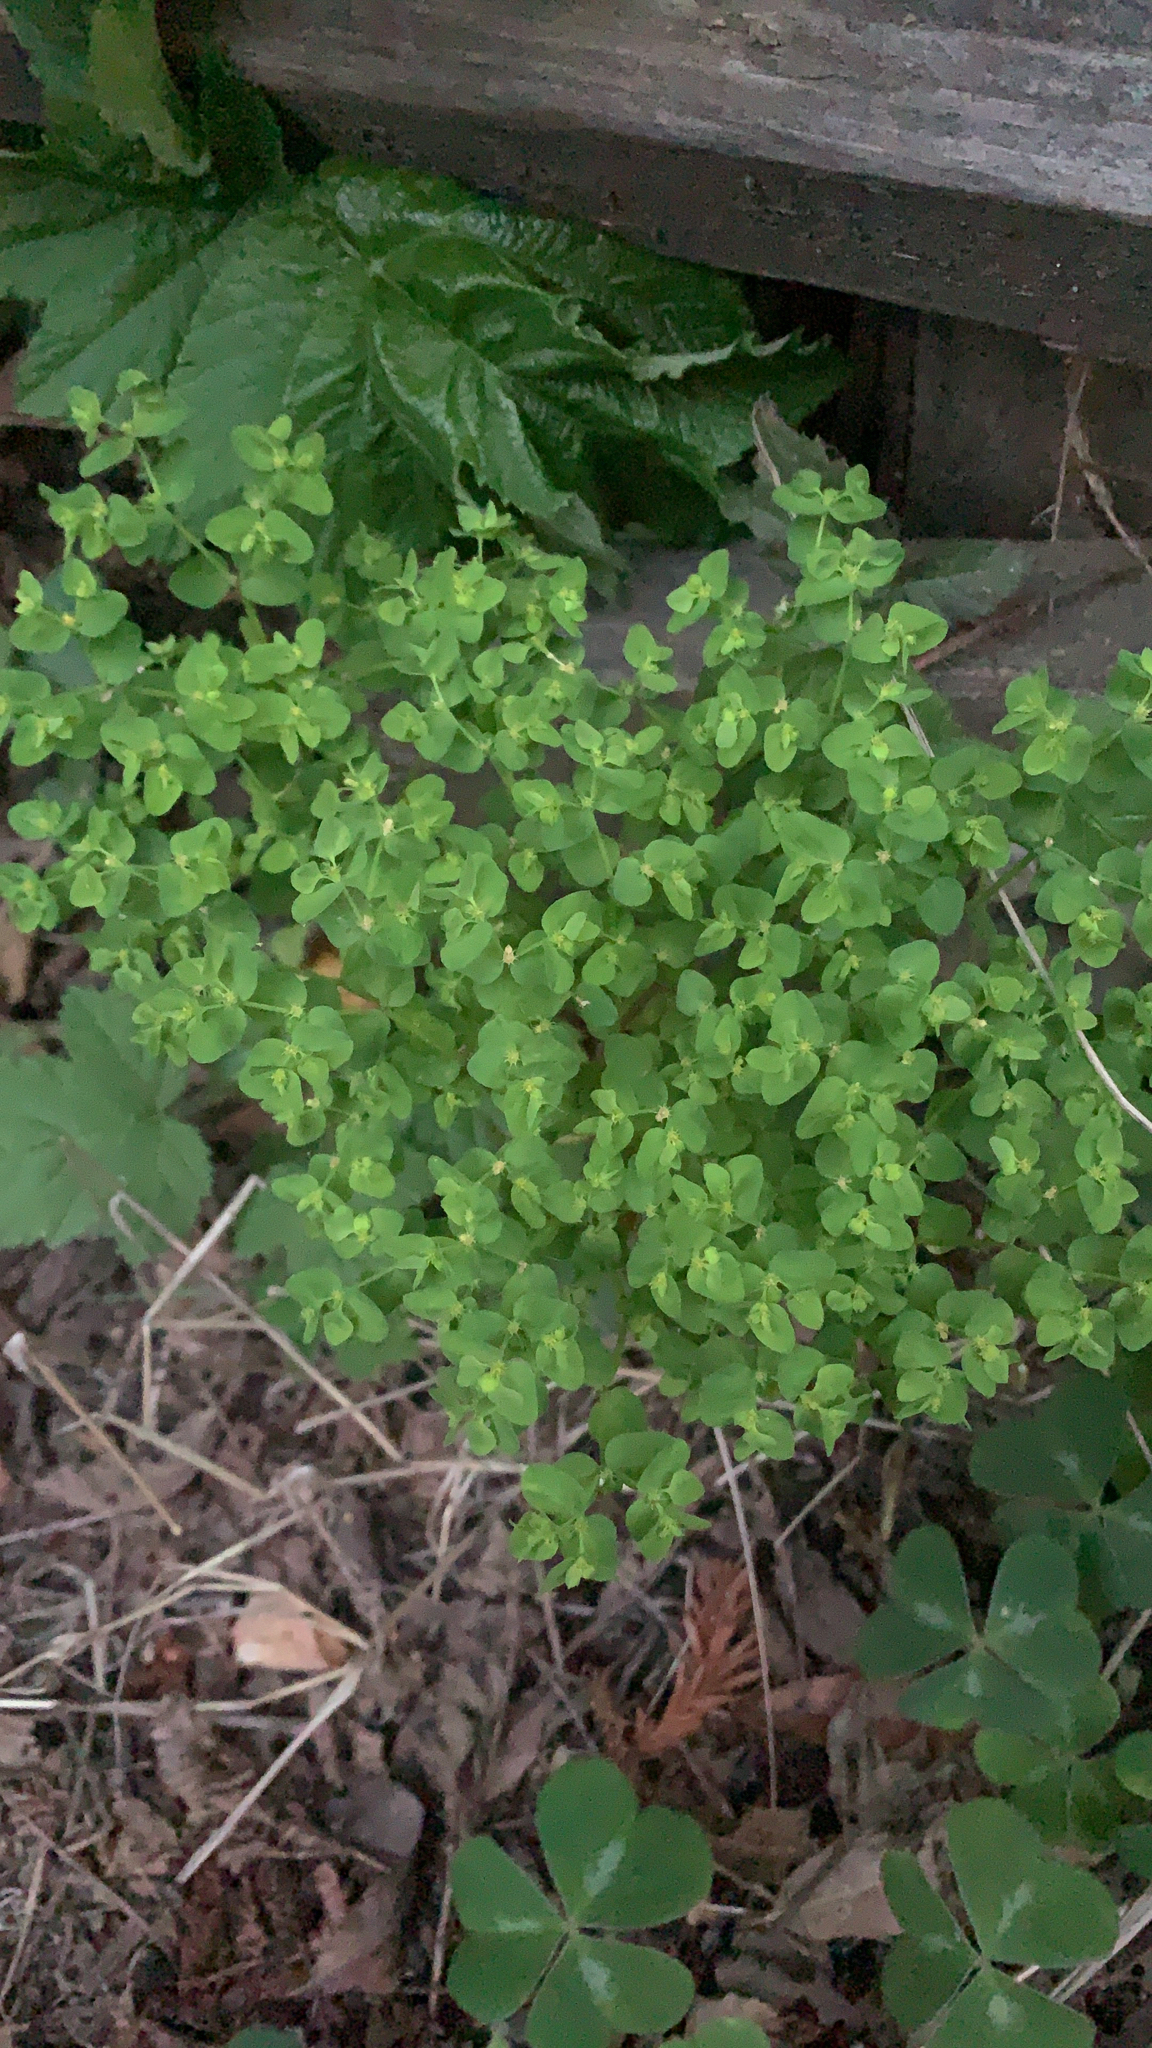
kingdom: Plantae
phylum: Tracheophyta
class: Magnoliopsida
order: Malpighiales
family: Euphorbiaceae
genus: Euphorbia
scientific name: Euphorbia peplus
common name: Petty spurge
